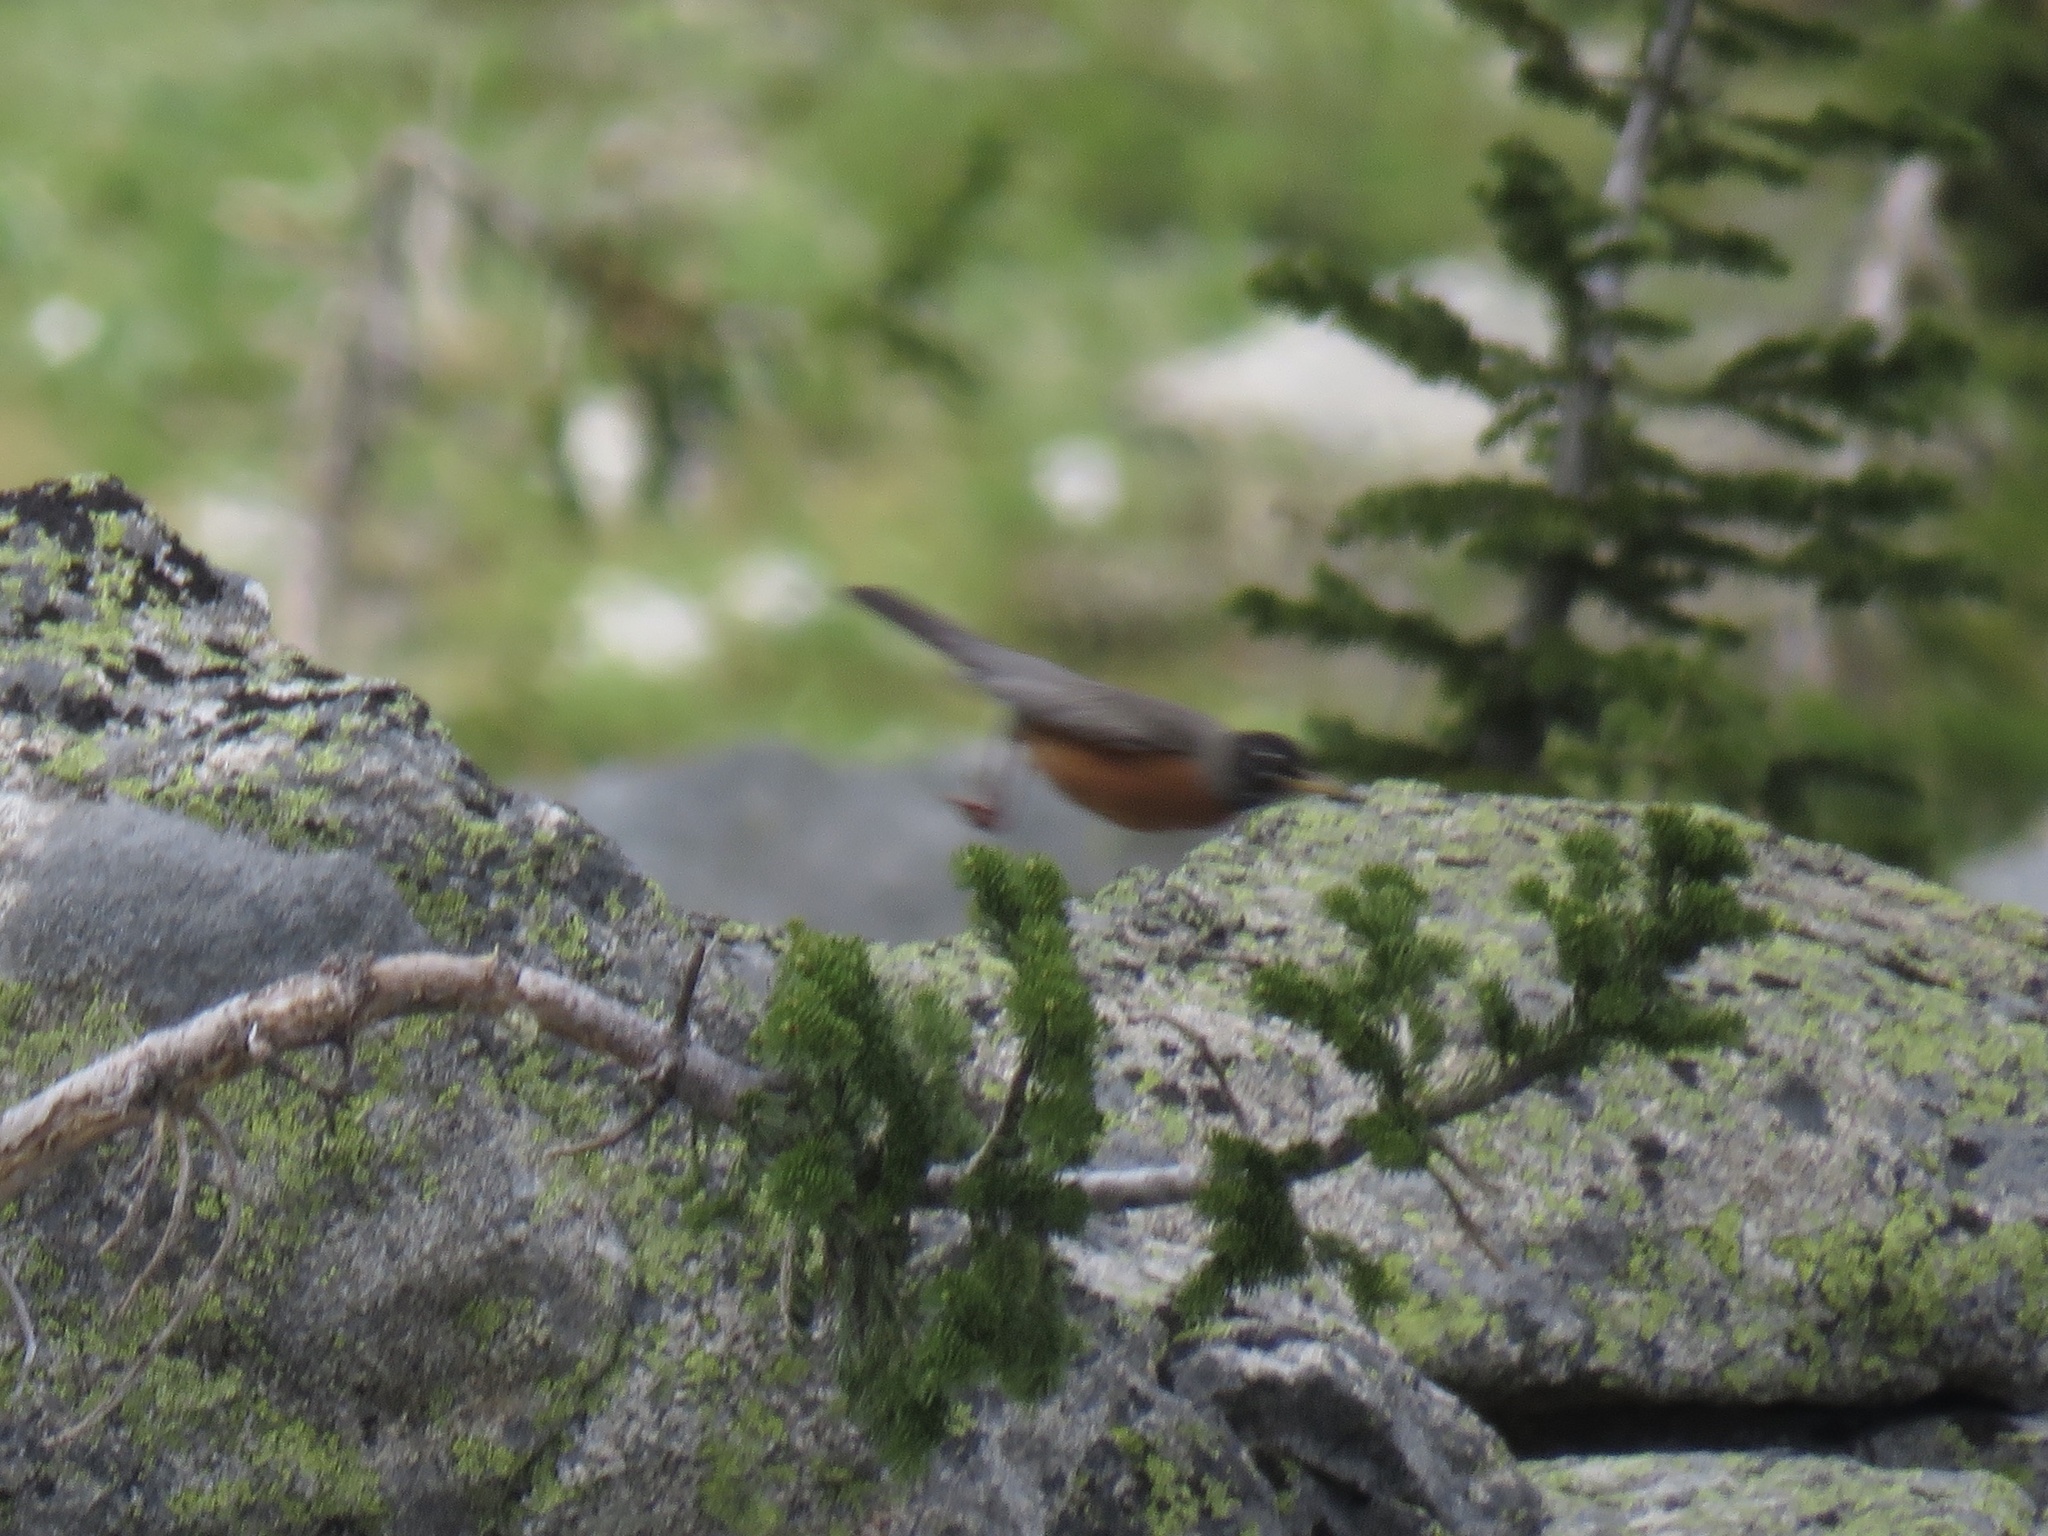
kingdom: Animalia
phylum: Chordata
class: Aves
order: Passeriformes
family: Turdidae
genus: Turdus
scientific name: Turdus migratorius
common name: American robin
